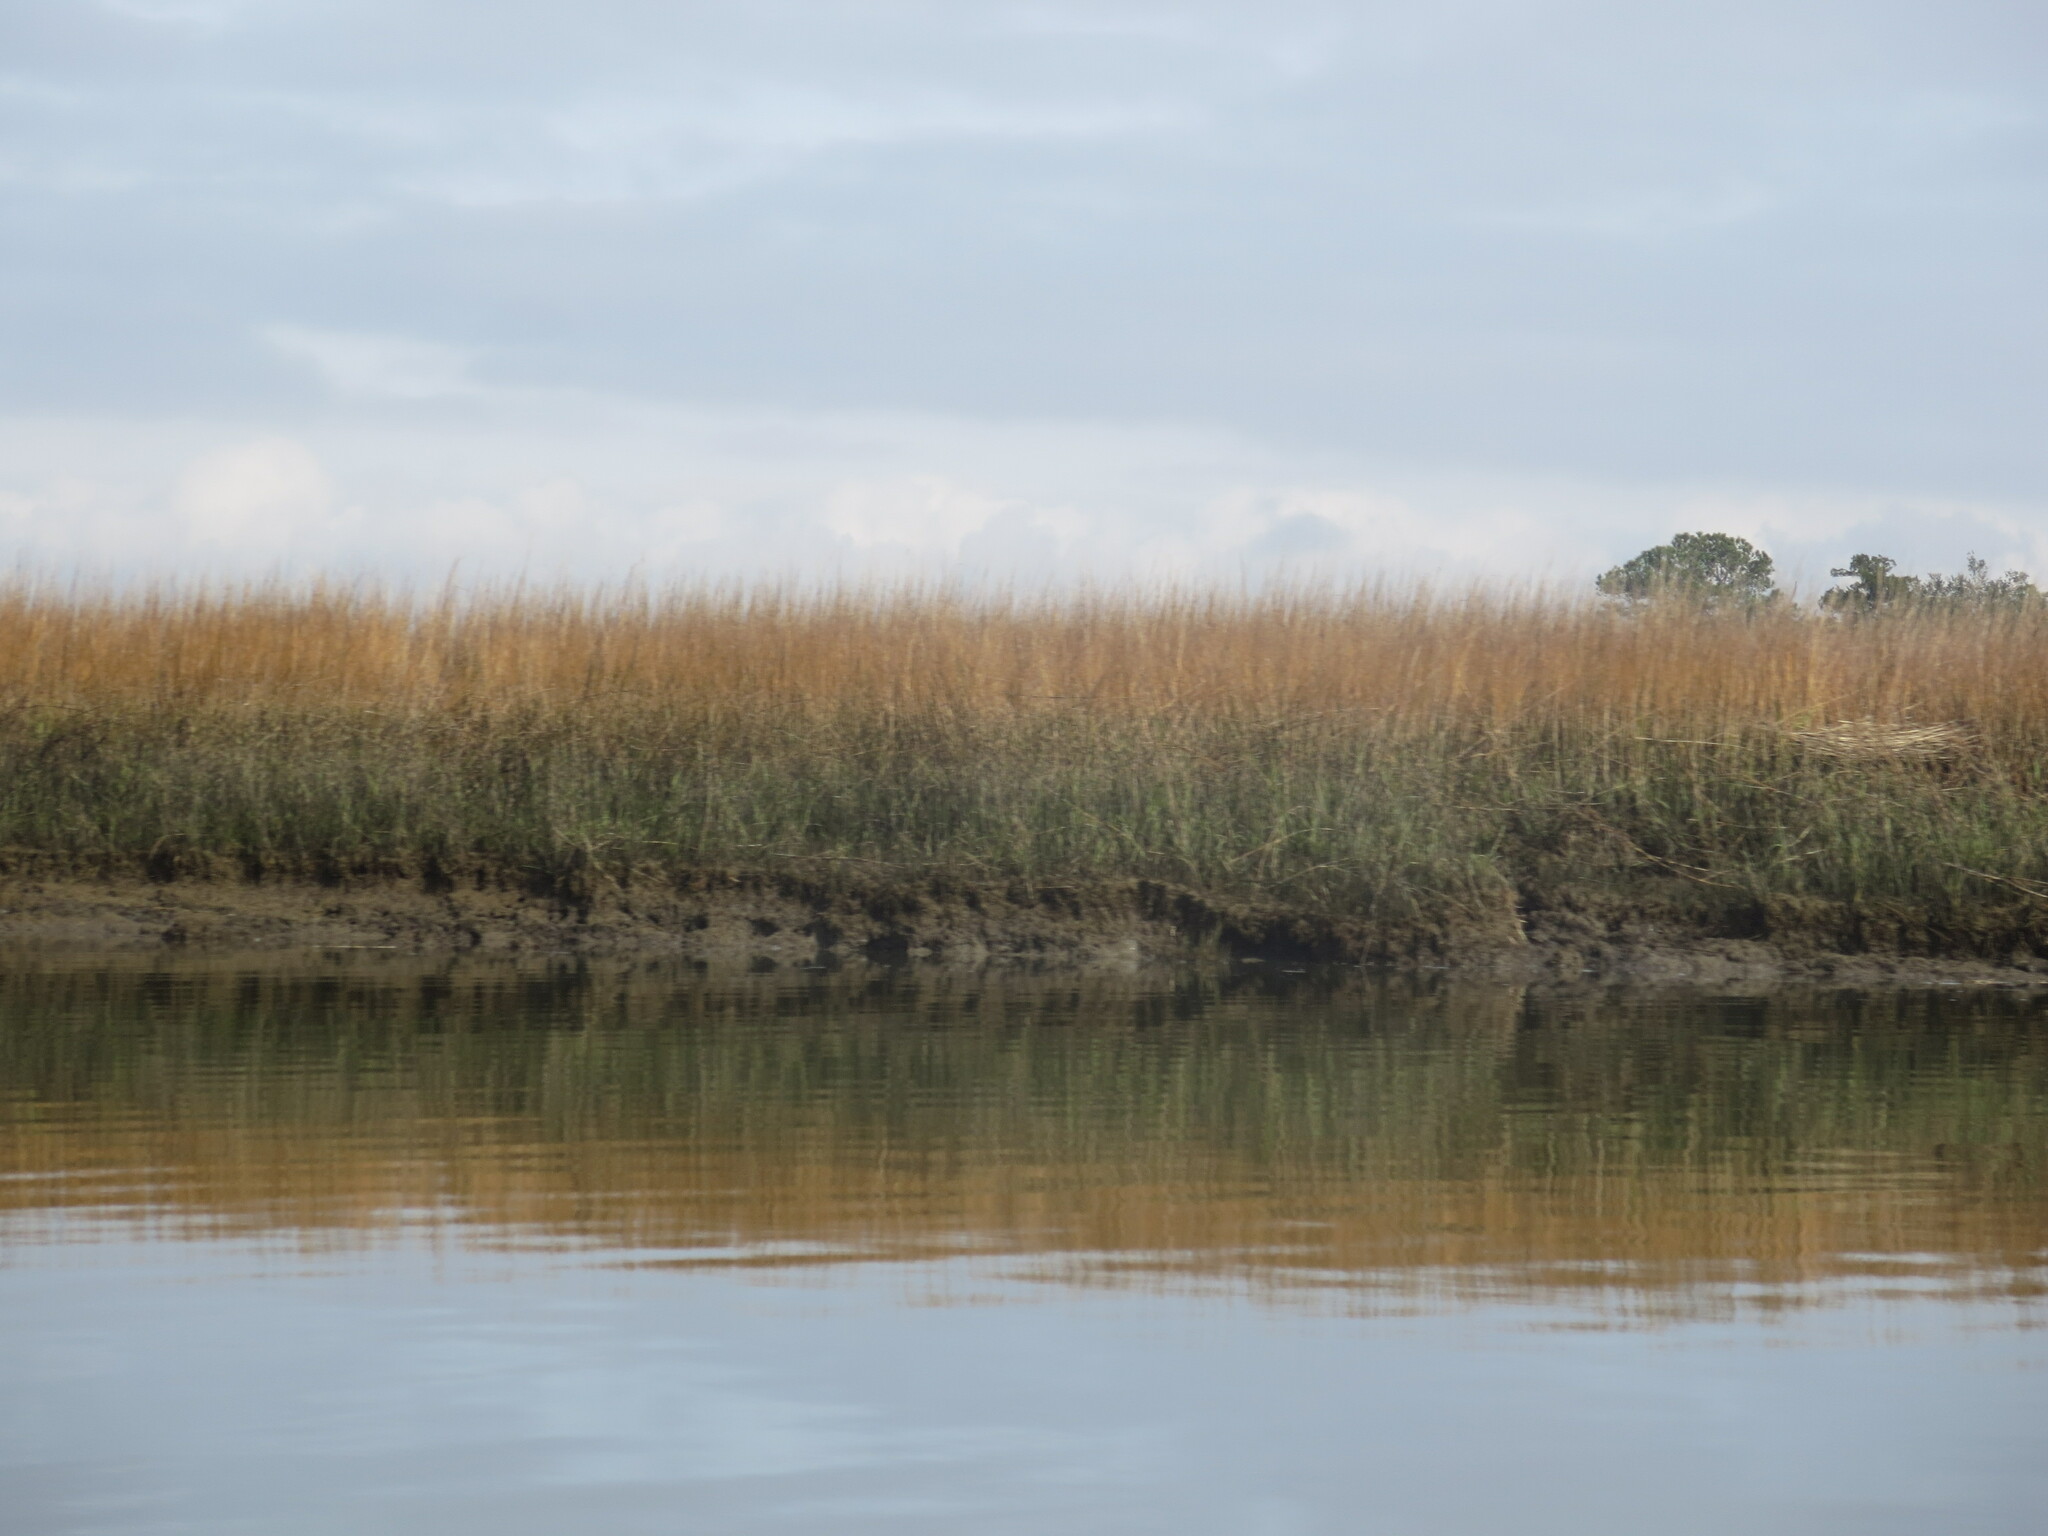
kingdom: Plantae
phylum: Tracheophyta
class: Liliopsida
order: Poales
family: Poaceae
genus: Sporobolus
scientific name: Sporobolus alterniflorus
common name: Atlantic cordgrass
